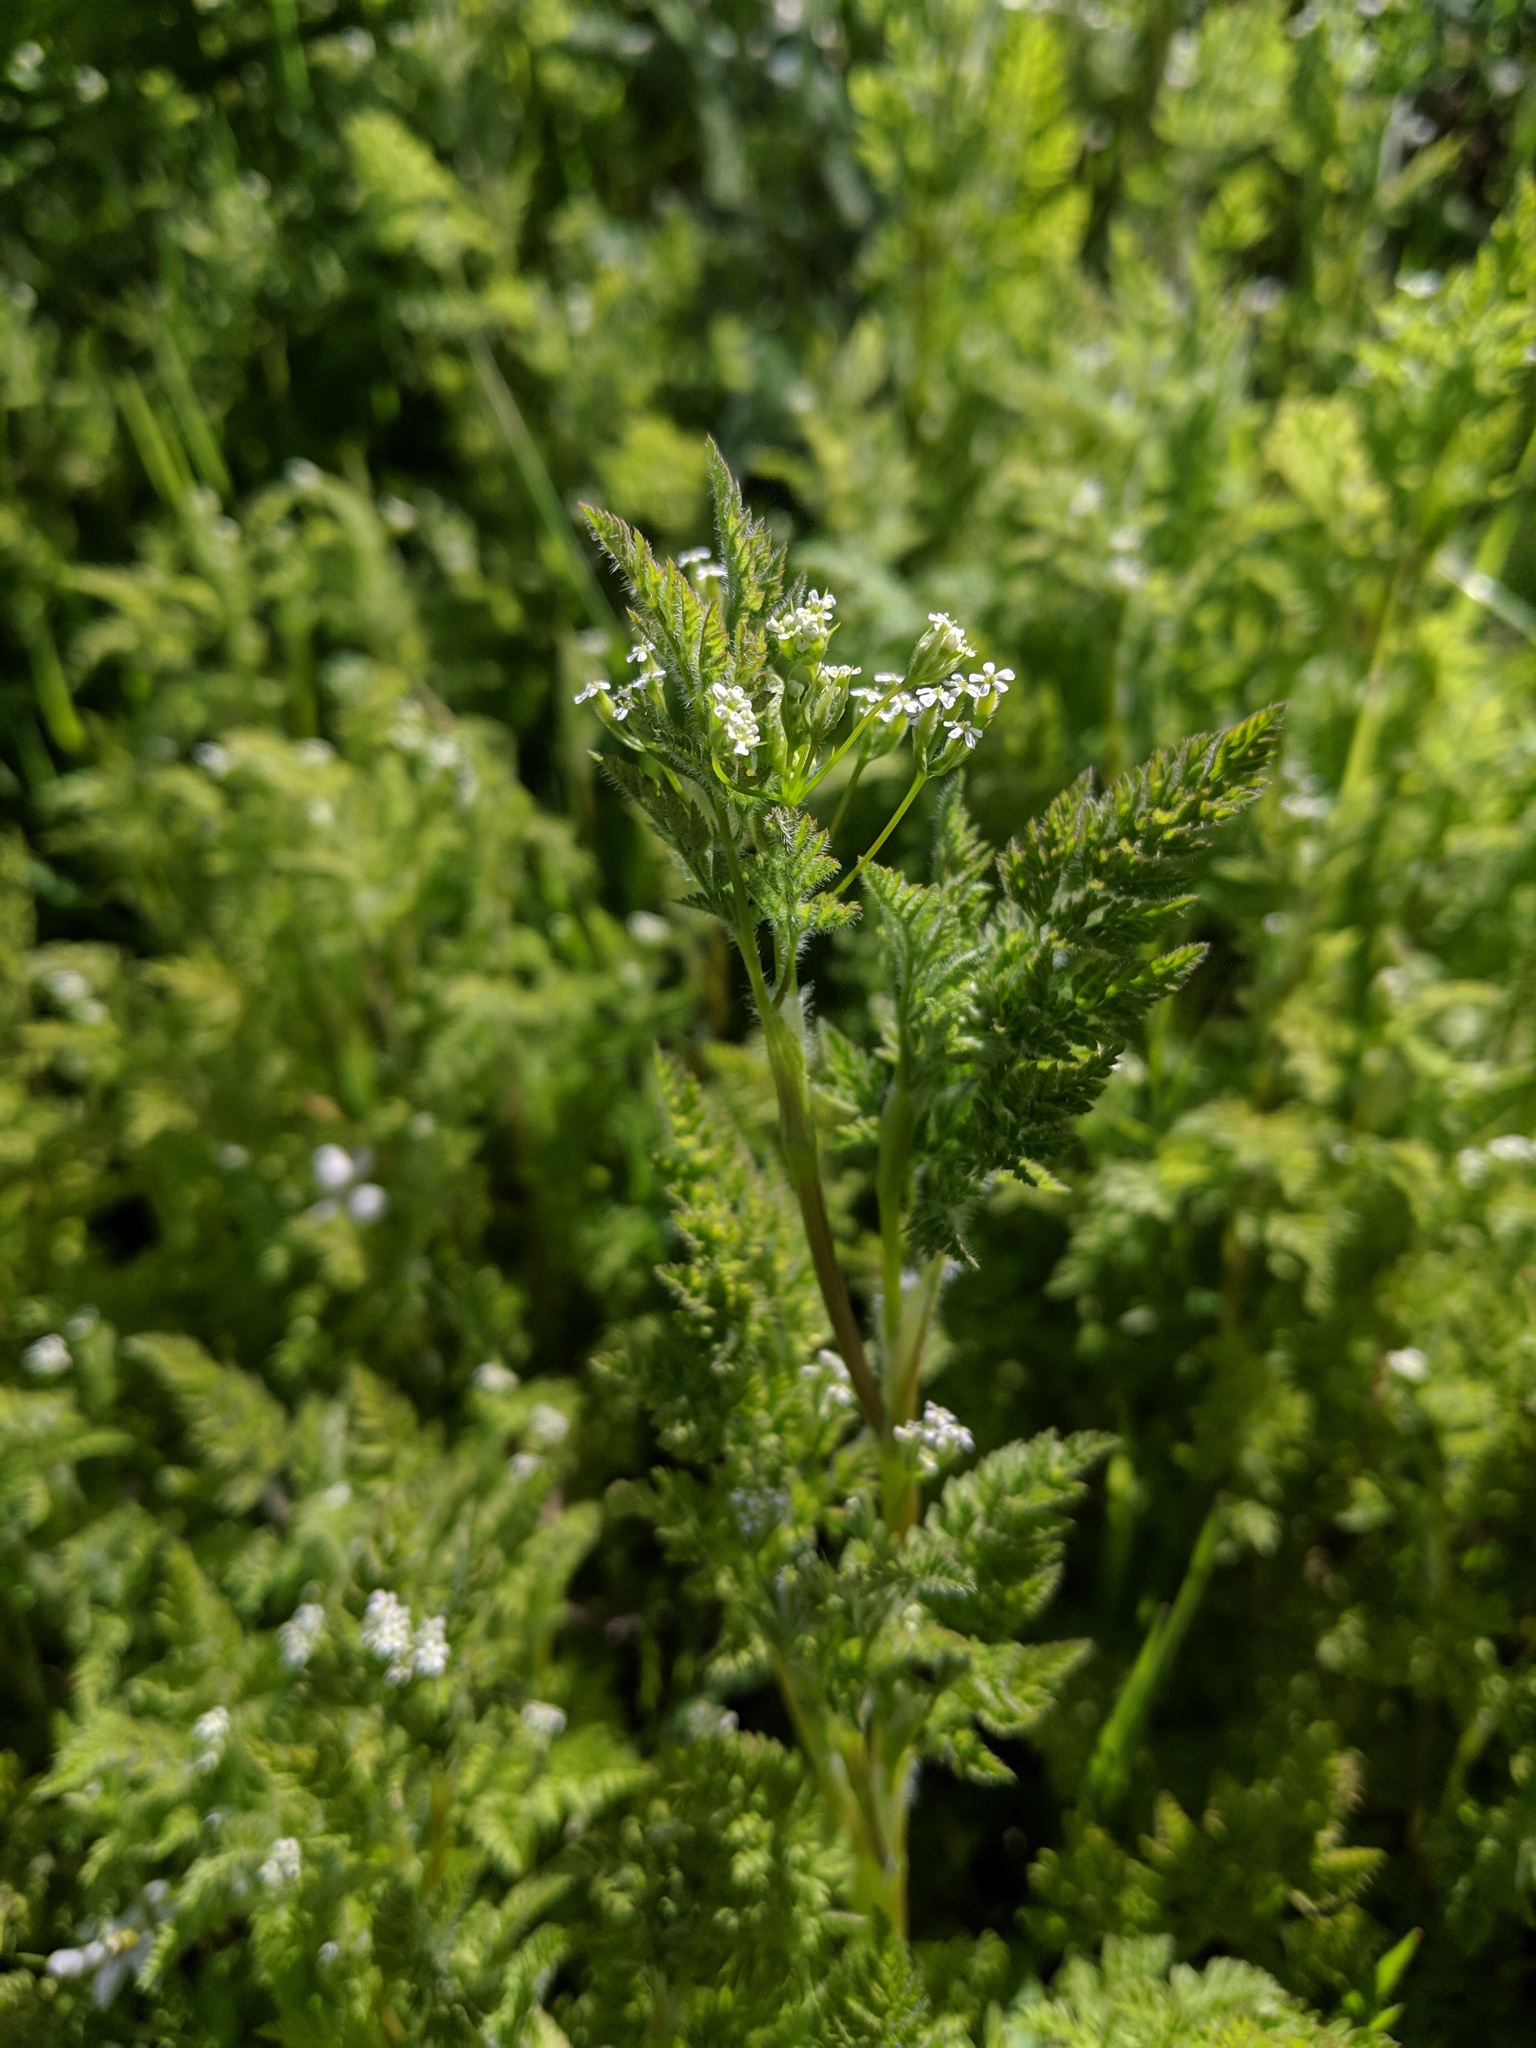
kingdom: Plantae
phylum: Tracheophyta
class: Magnoliopsida
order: Apiales
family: Apiaceae
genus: Anthriscus
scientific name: Anthriscus caucalis
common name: Bur chervil
